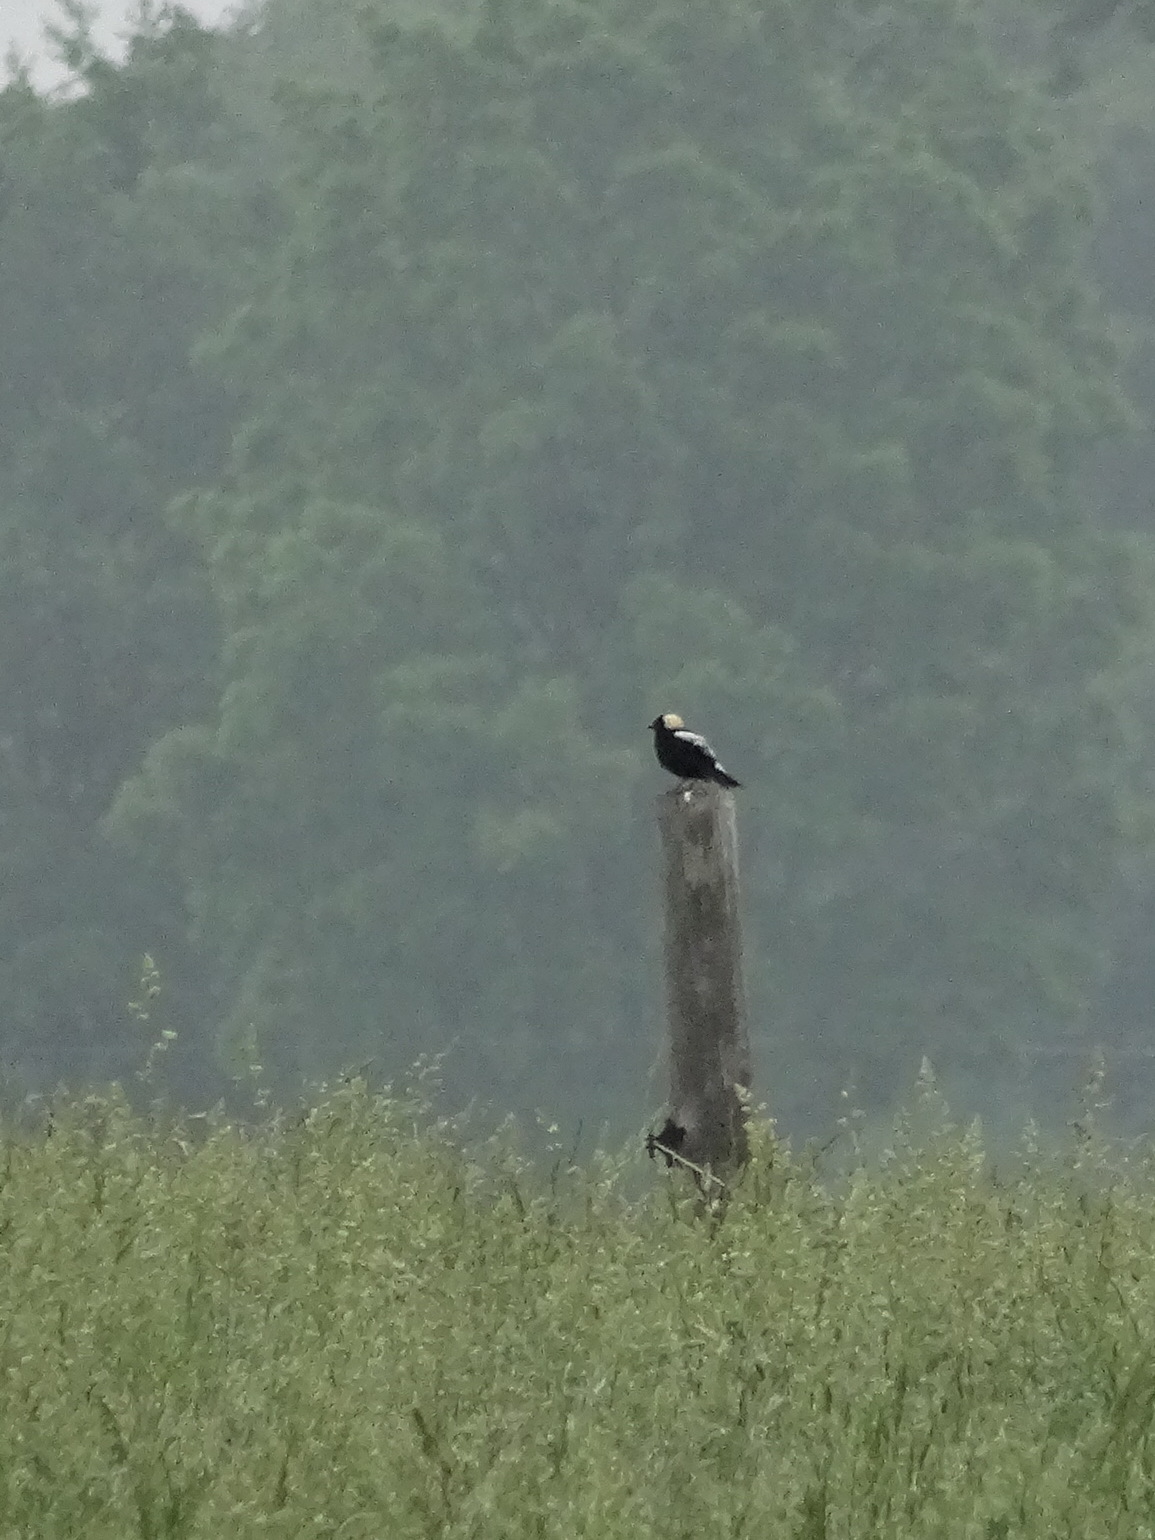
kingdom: Animalia
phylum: Chordata
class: Aves
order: Passeriformes
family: Icteridae
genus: Dolichonyx
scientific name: Dolichonyx oryzivorus
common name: Bobolink
